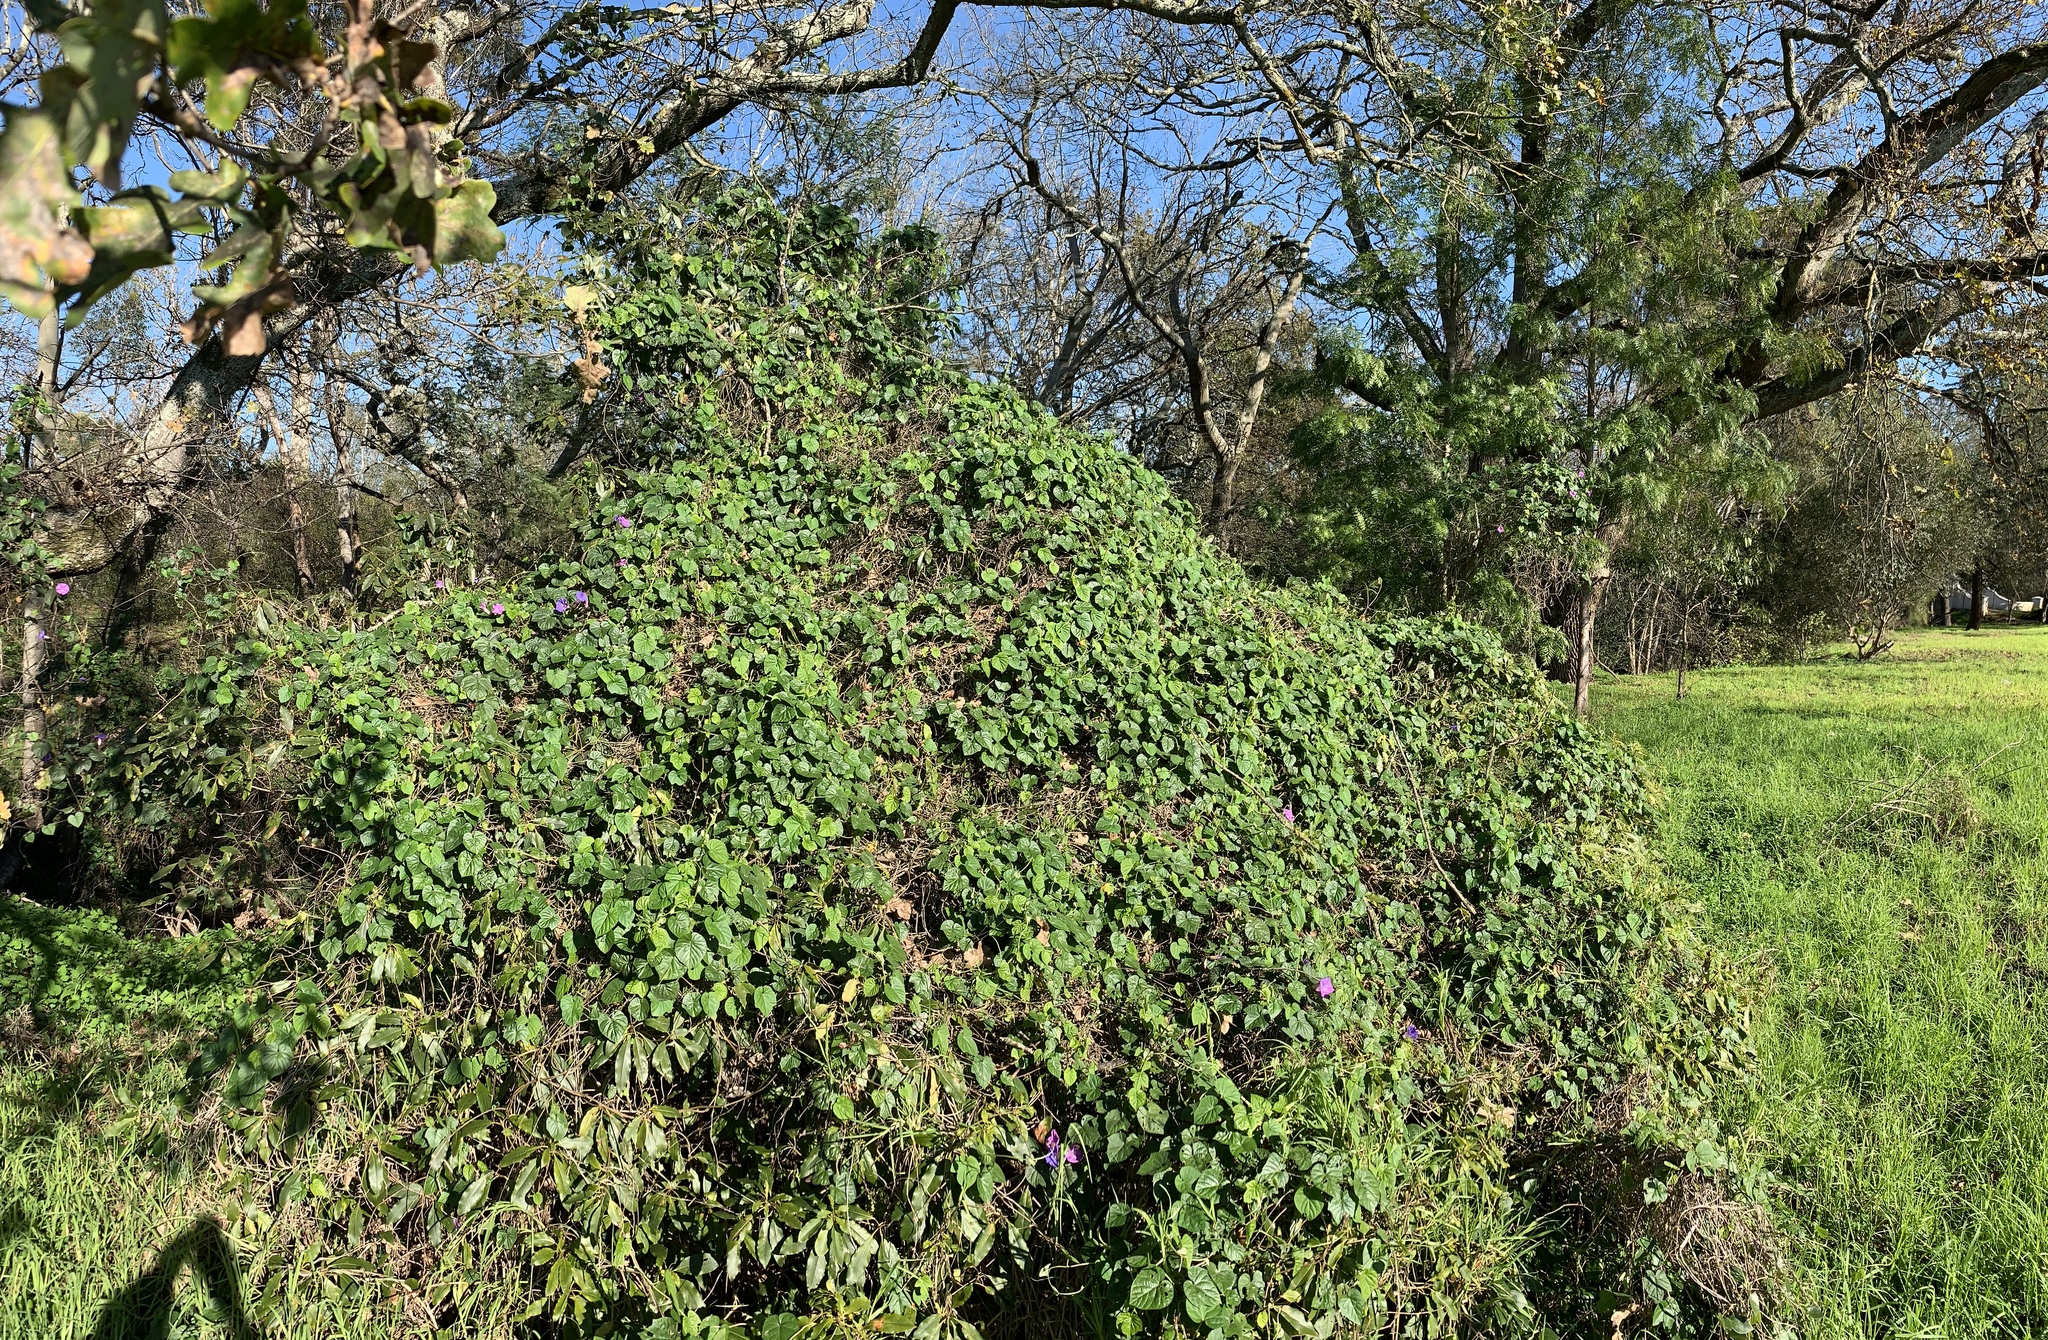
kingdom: Plantae
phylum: Tracheophyta
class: Magnoliopsida
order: Solanales
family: Convolvulaceae
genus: Ipomoea
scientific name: Ipomoea indica
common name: Blue dawnflower
